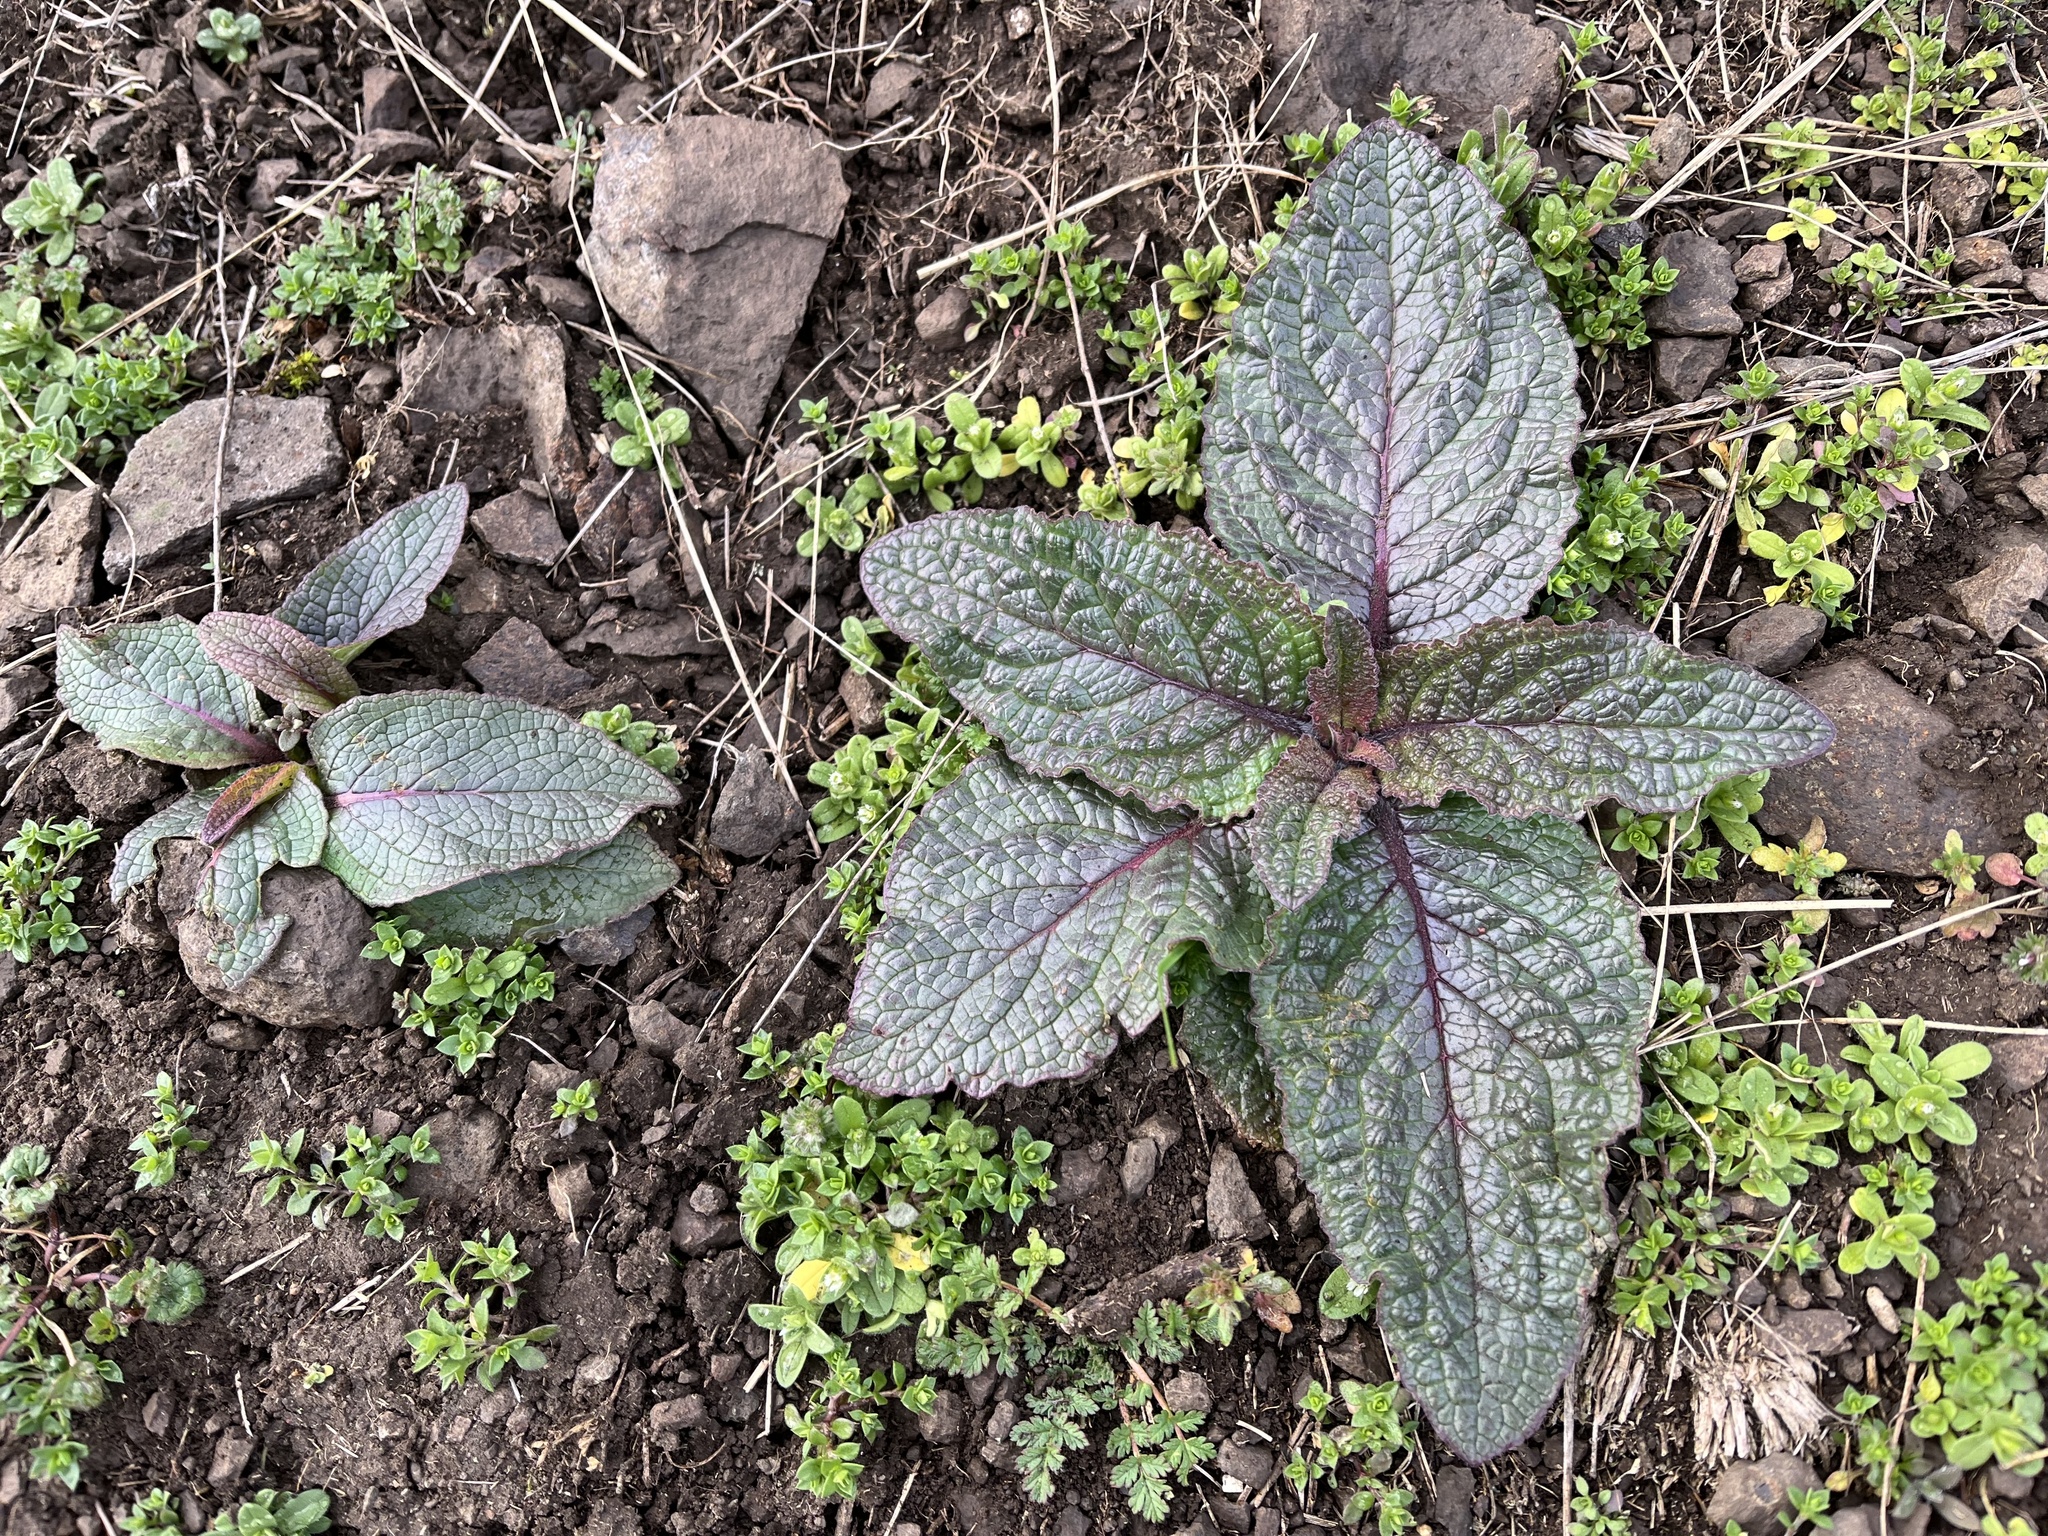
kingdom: Plantae
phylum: Tracheophyta
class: Magnoliopsida
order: Lamiales
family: Scrophulariaceae
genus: Verbascum
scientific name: Verbascum phoeniceum
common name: Purple mullein
